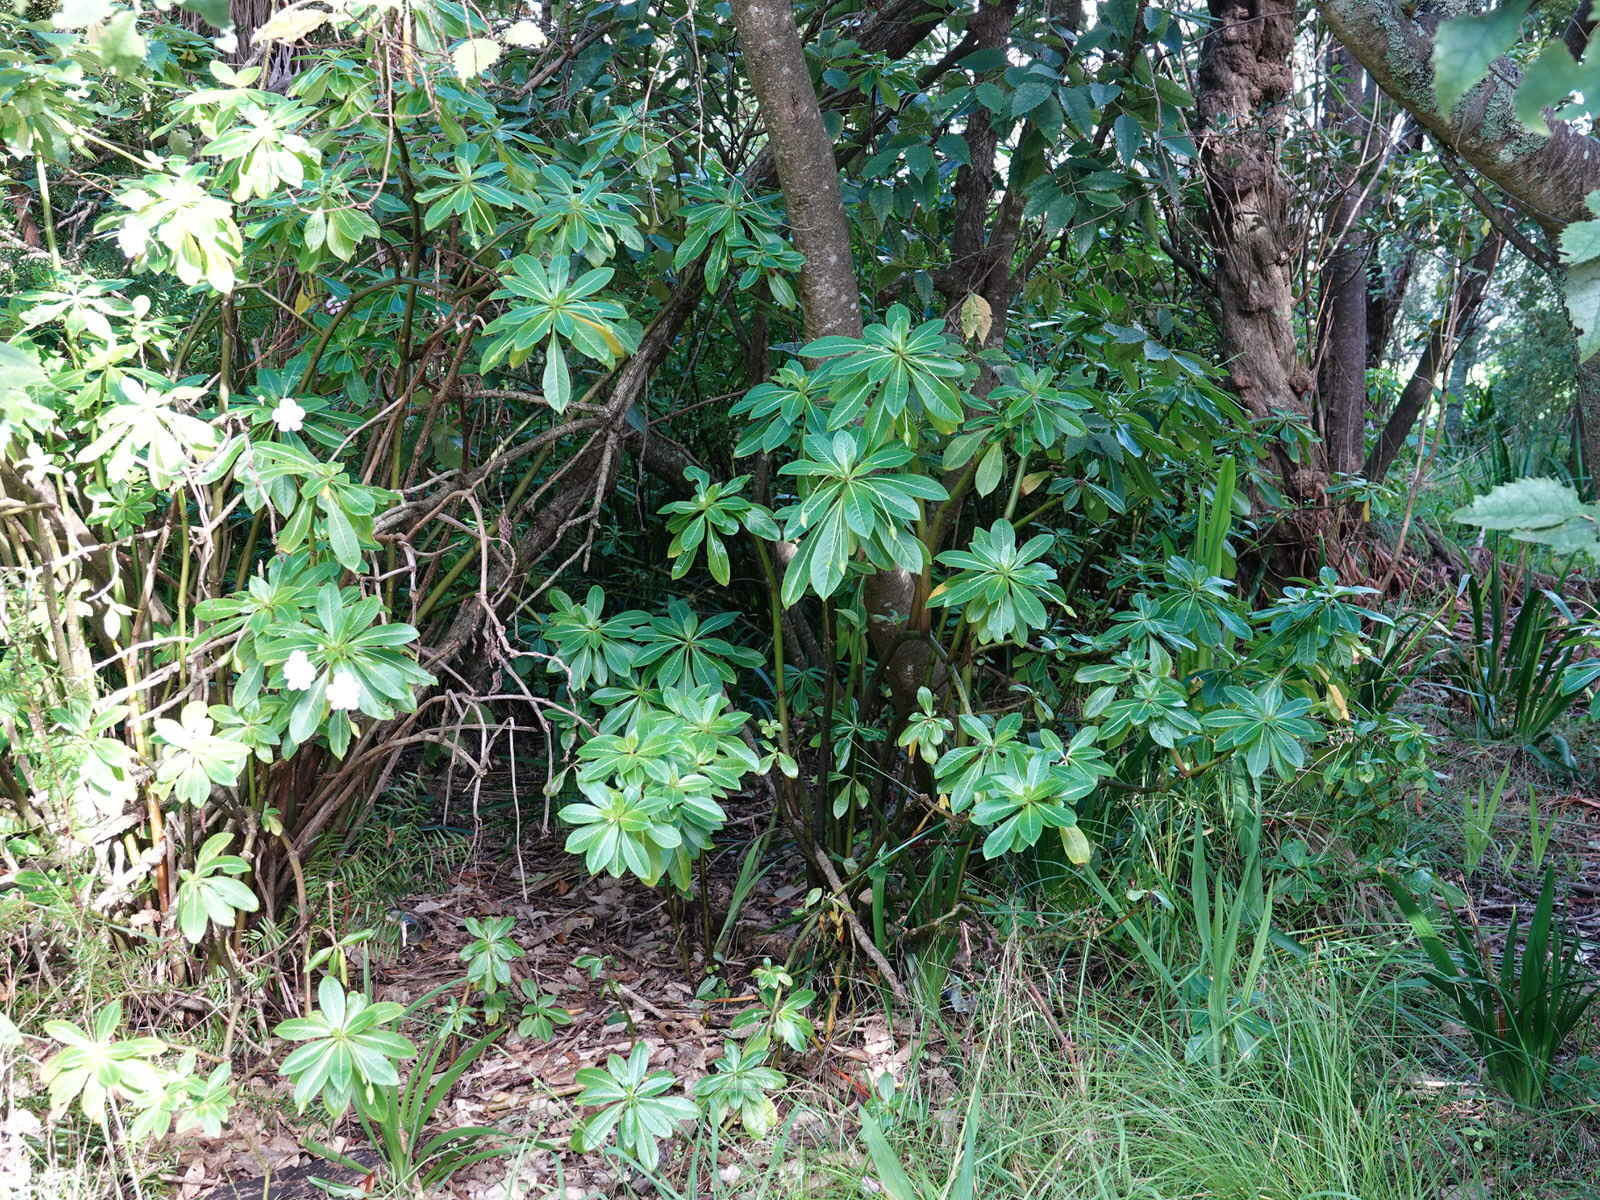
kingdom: Plantae
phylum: Tracheophyta
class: Magnoliopsida
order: Ericales
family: Balsaminaceae
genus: Impatiens
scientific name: Impatiens sodenii
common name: Oliver's touch-me-not
